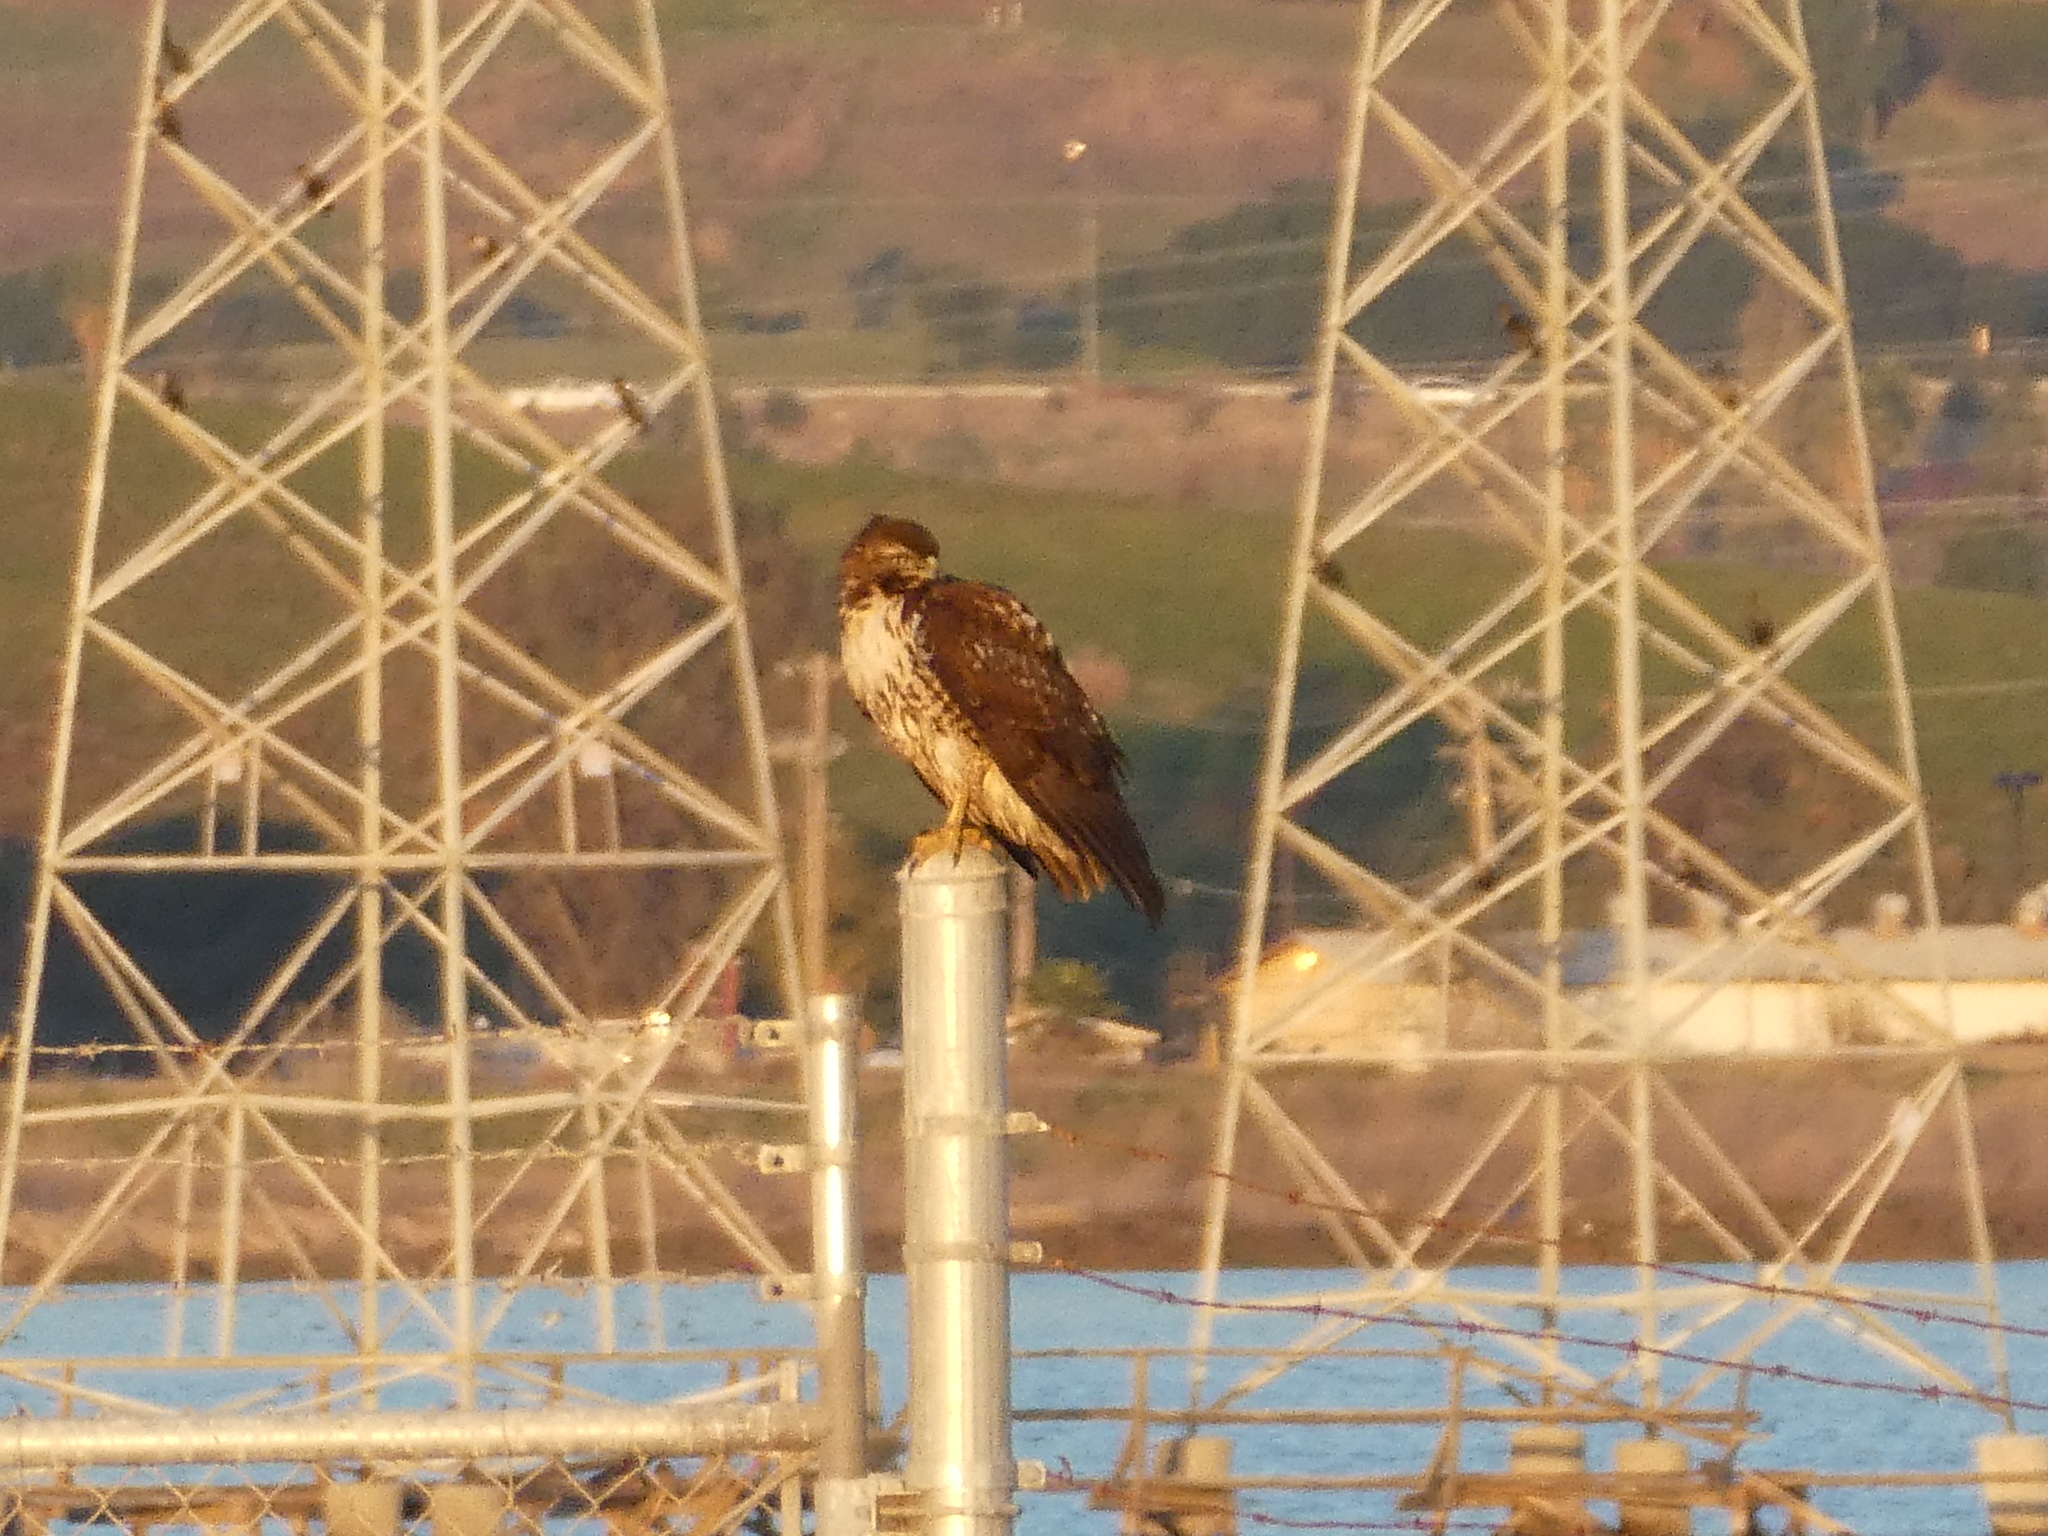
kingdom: Animalia
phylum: Chordata
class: Aves
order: Accipitriformes
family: Accipitridae
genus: Buteo
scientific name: Buteo jamaicensis
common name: Red-tailed hawk
